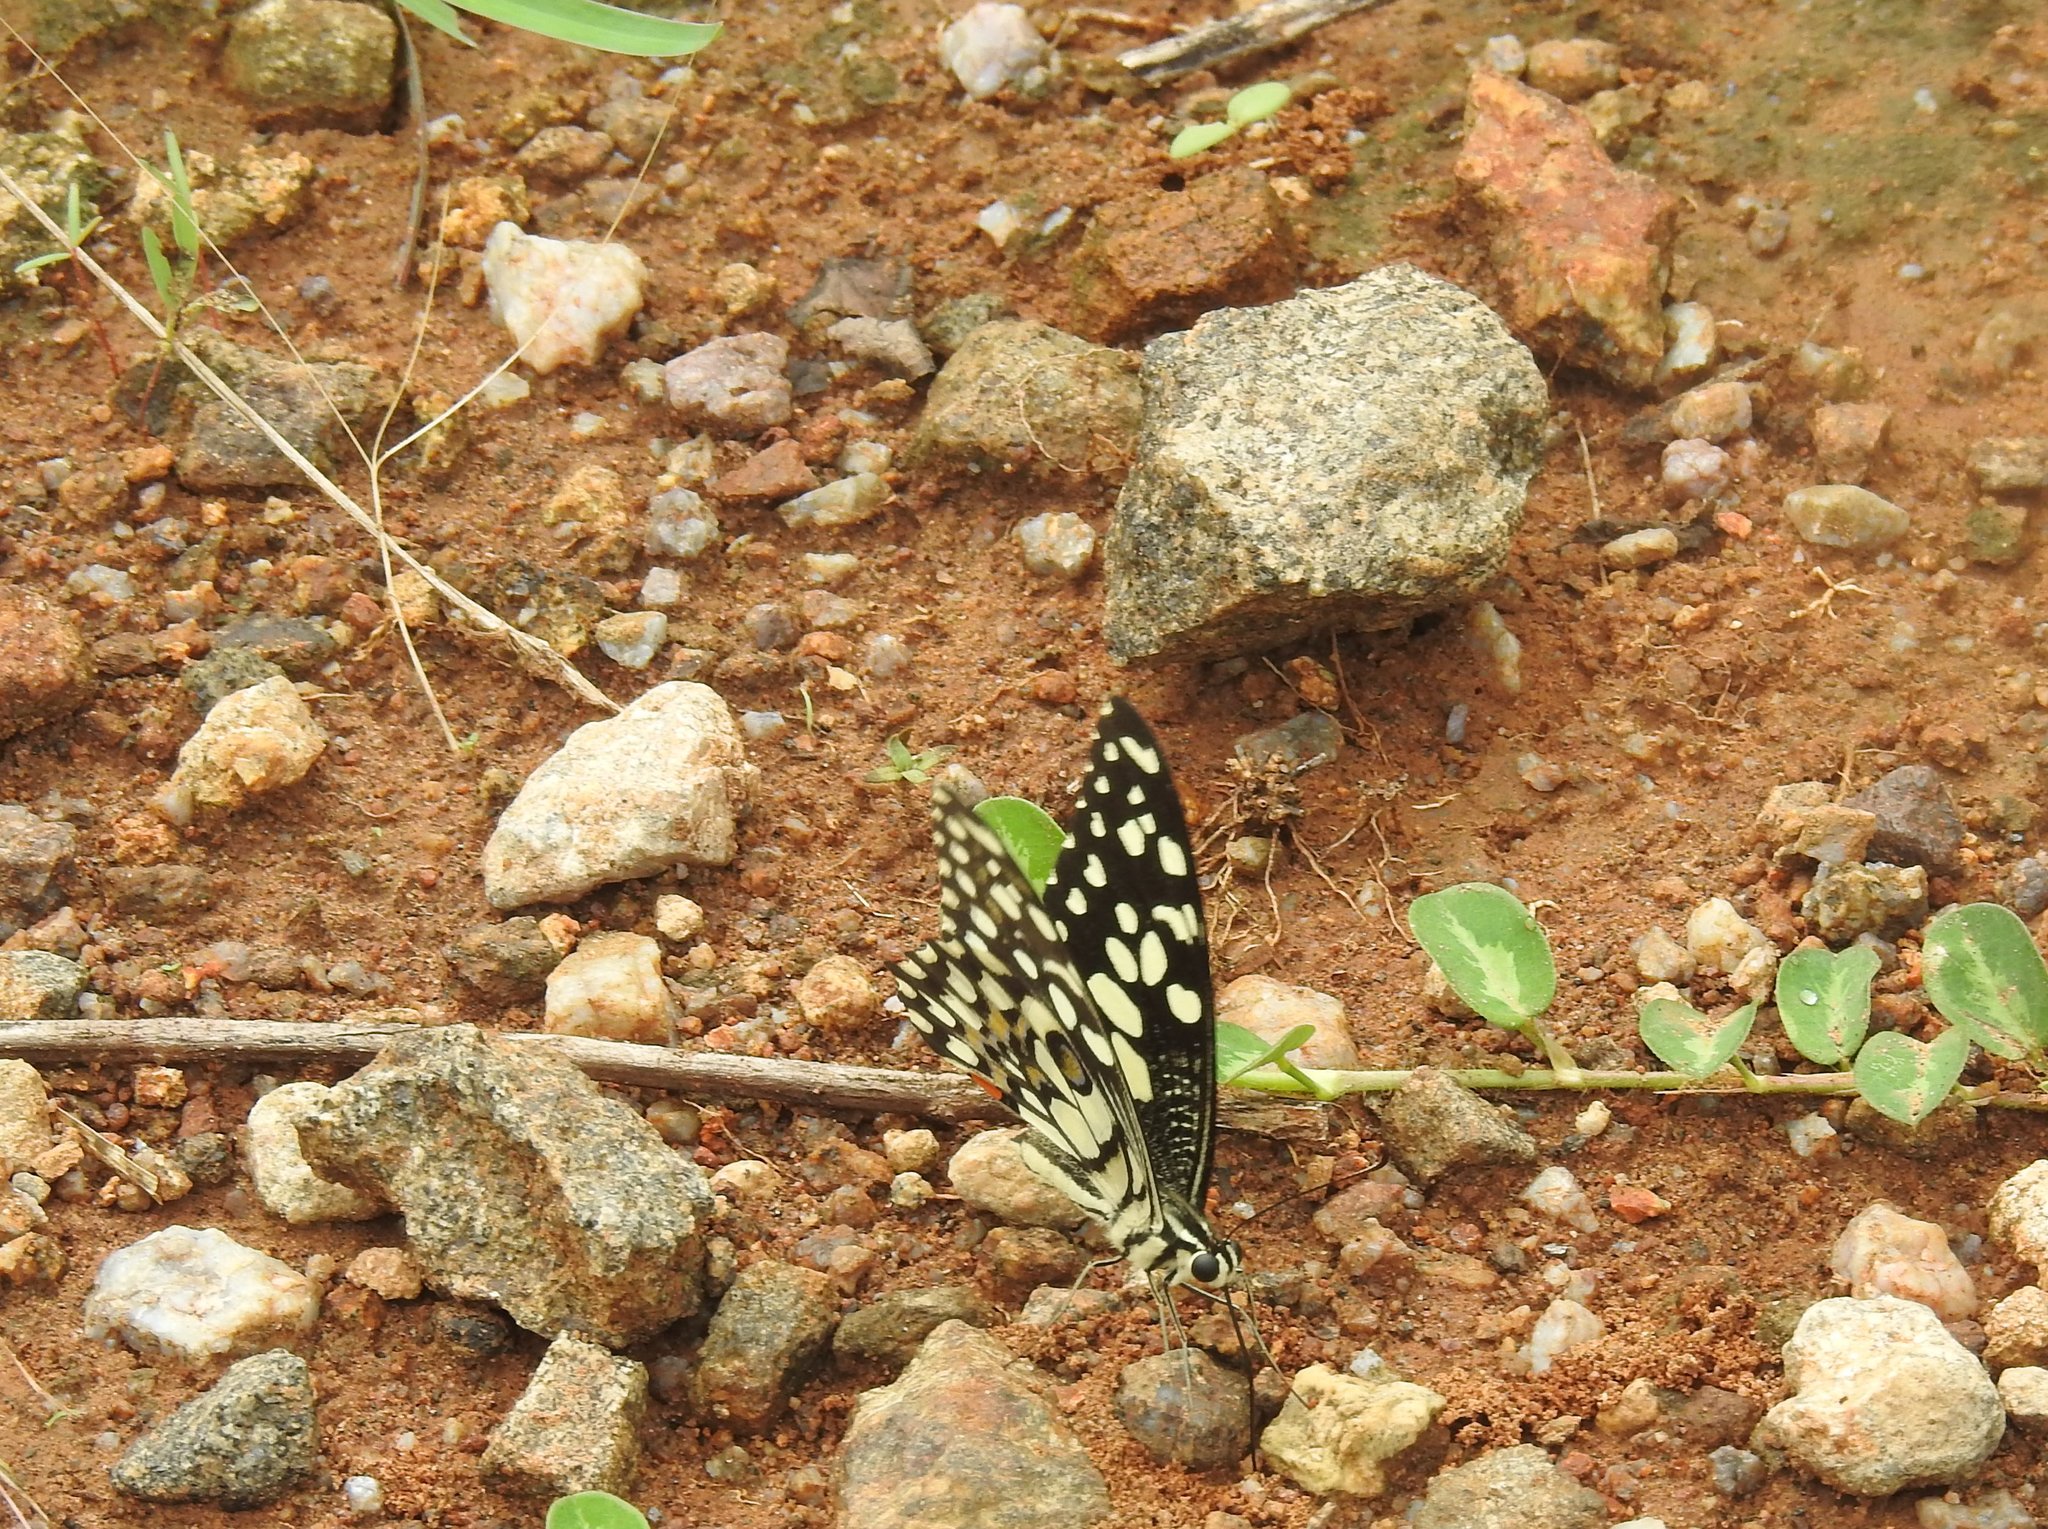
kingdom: Animalia
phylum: Arthropoda
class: Insecta
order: Lepidoptera
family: Papilionidae
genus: Papilio
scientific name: Papilio demoleus
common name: Lime butterfly
